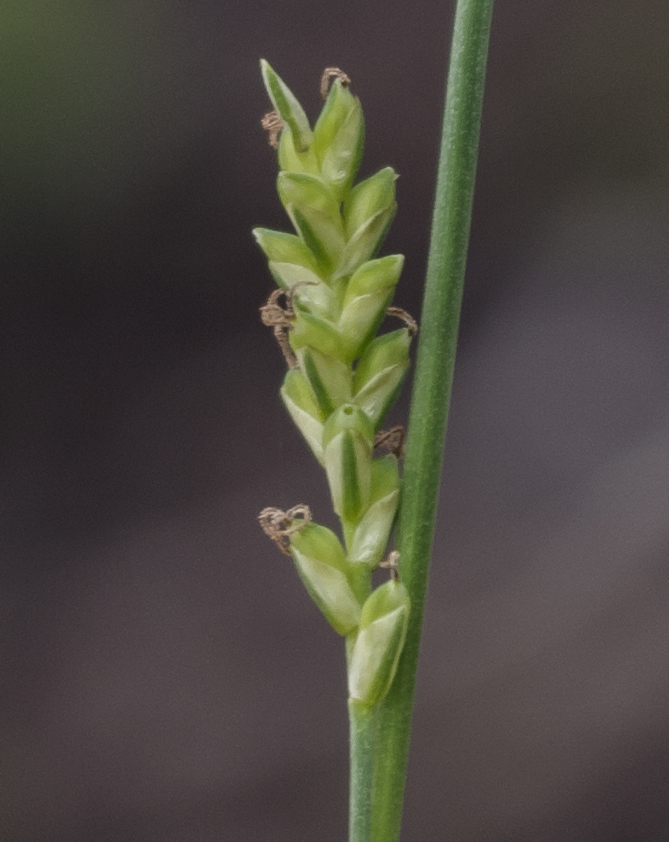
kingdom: Plantae
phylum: Tracheophyta
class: Liliopsida
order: Poales
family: Cyperaceae
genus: Carex
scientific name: Carex woodii
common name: Wood's sedge
